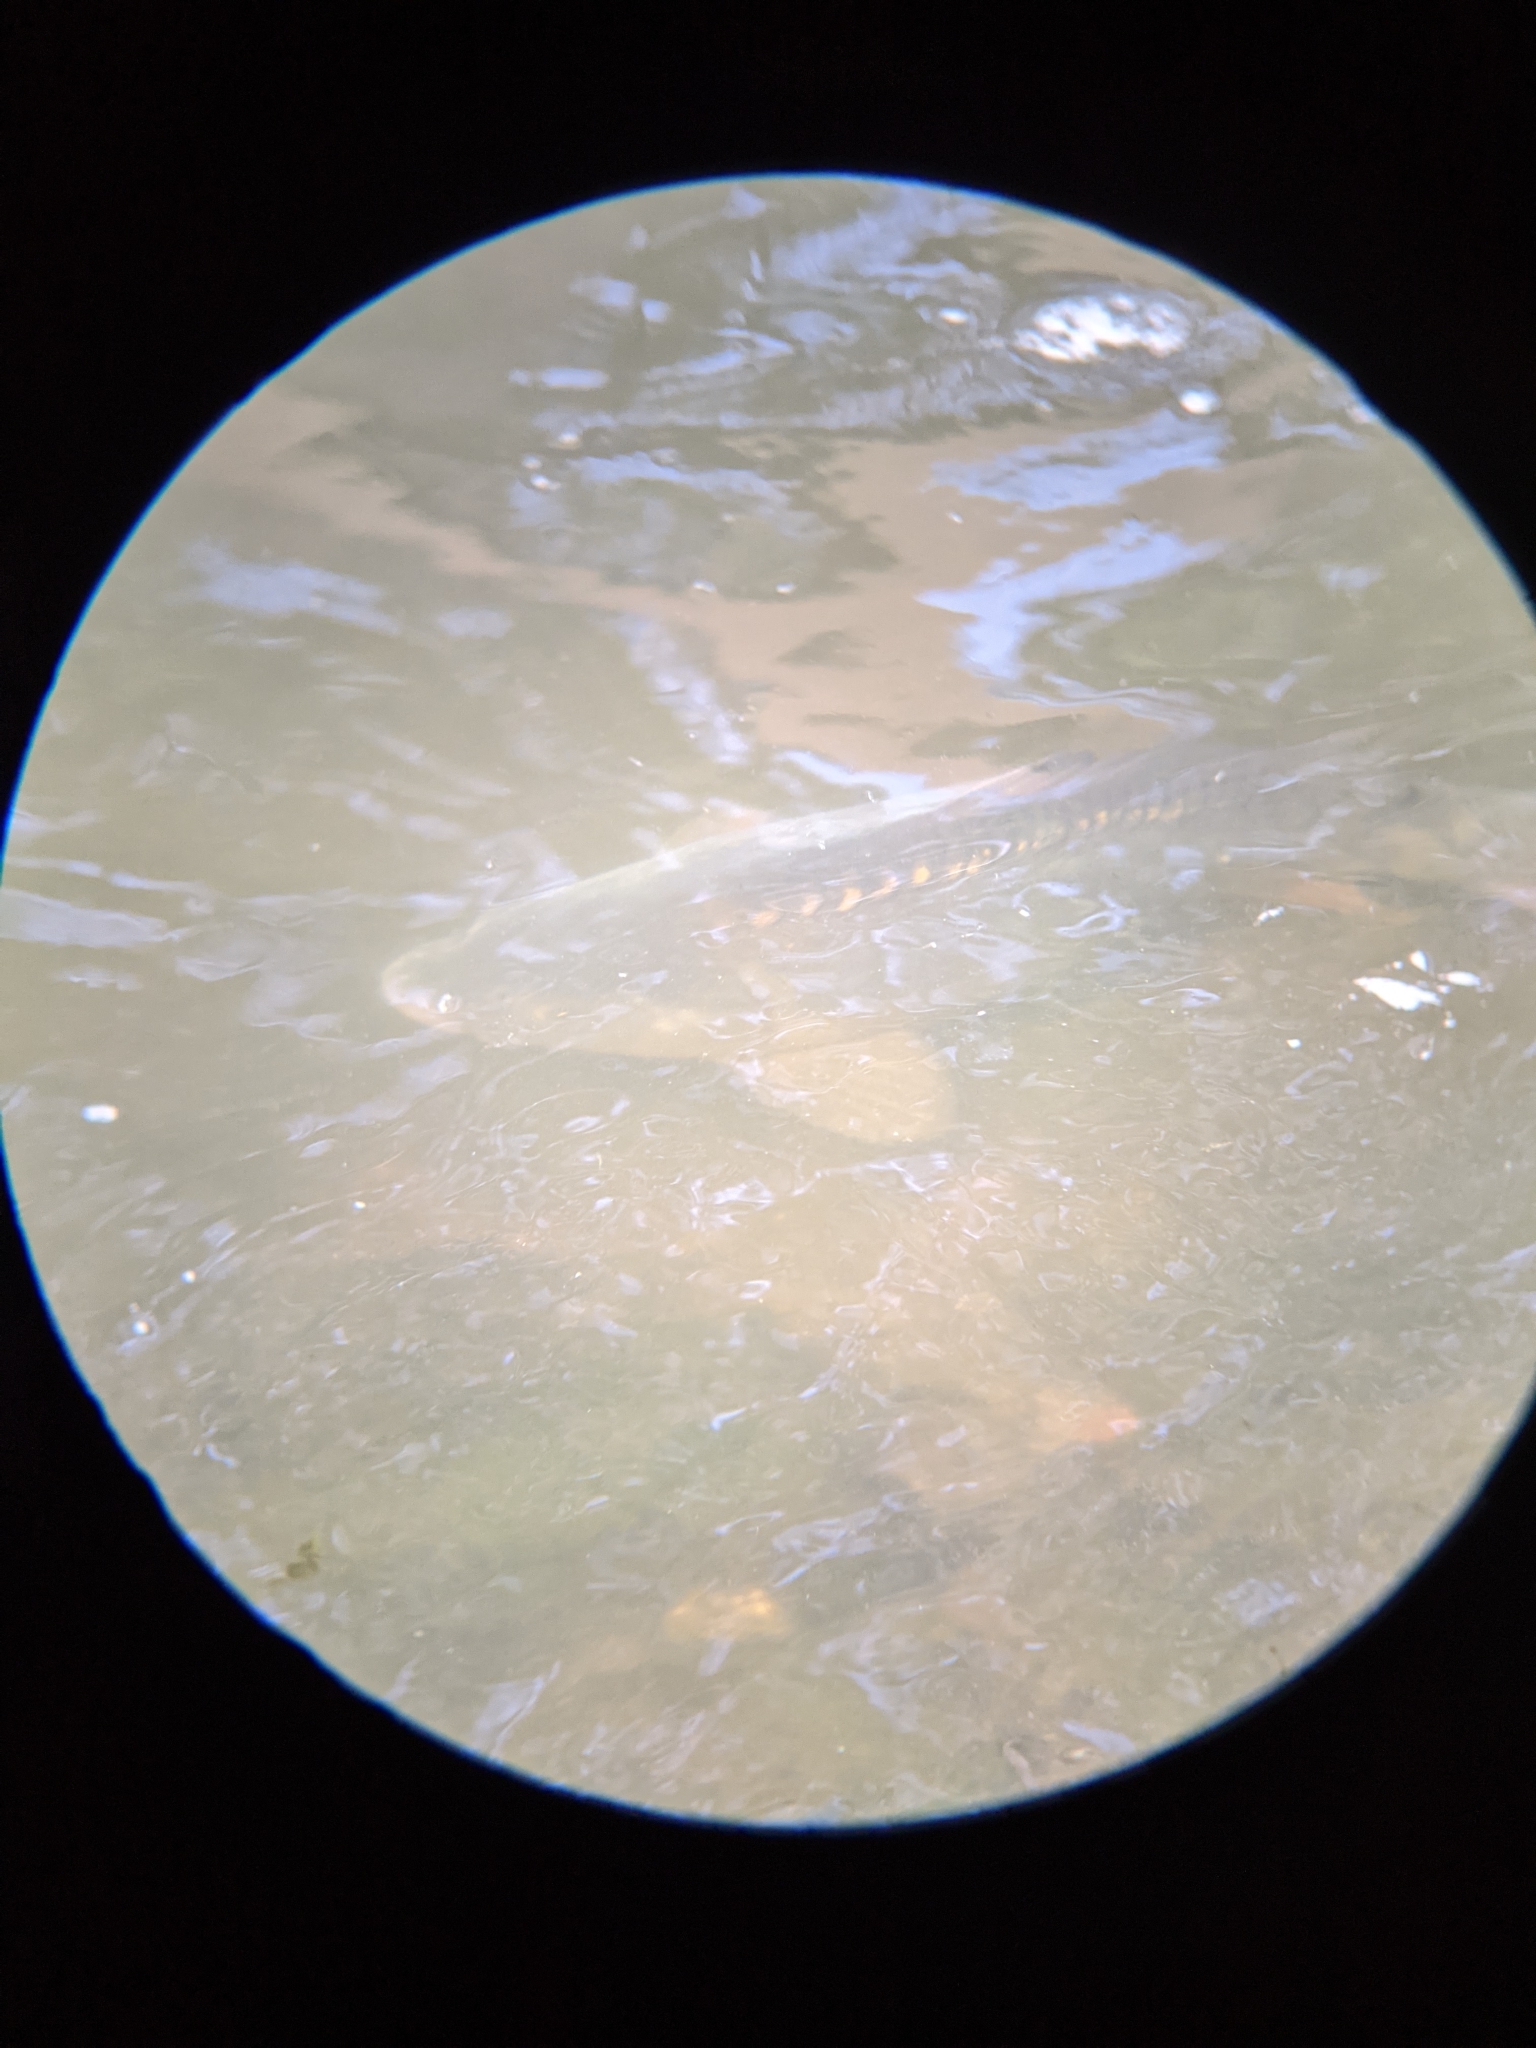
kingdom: Animalia
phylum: Chordata
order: Cypriniformes
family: Cyprinidae
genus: Cyprinus
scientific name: Cyprinus carpio
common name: Common carp
